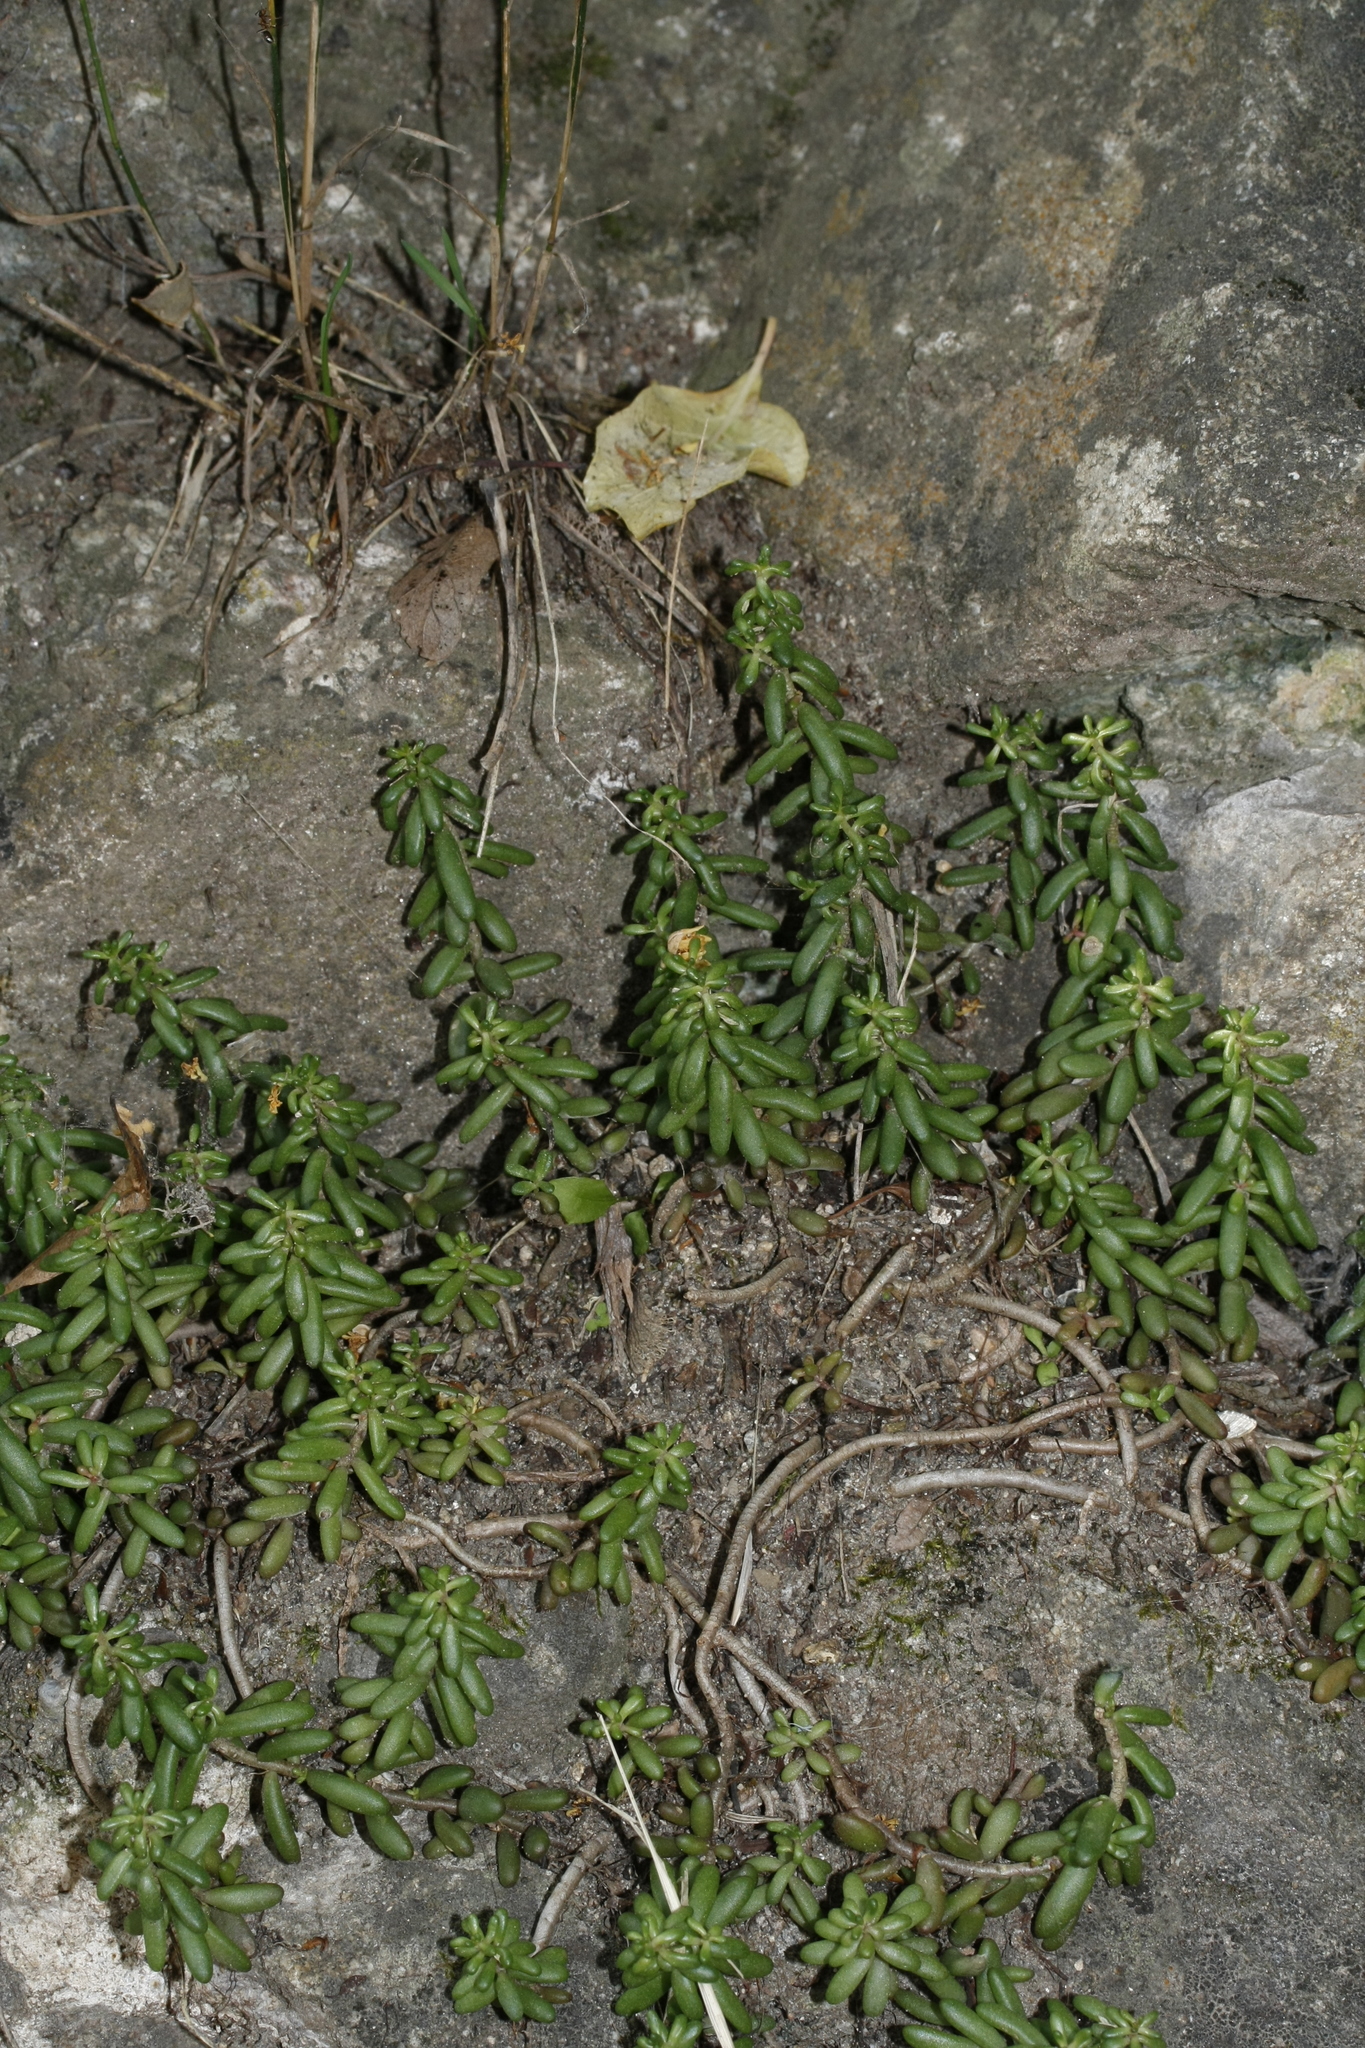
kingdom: Plantae
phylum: Tracheophyta
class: Magnoliopsida
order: Saxifragales
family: Crassulaceae
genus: Sedum
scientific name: Sedum album
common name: White stonecrop
